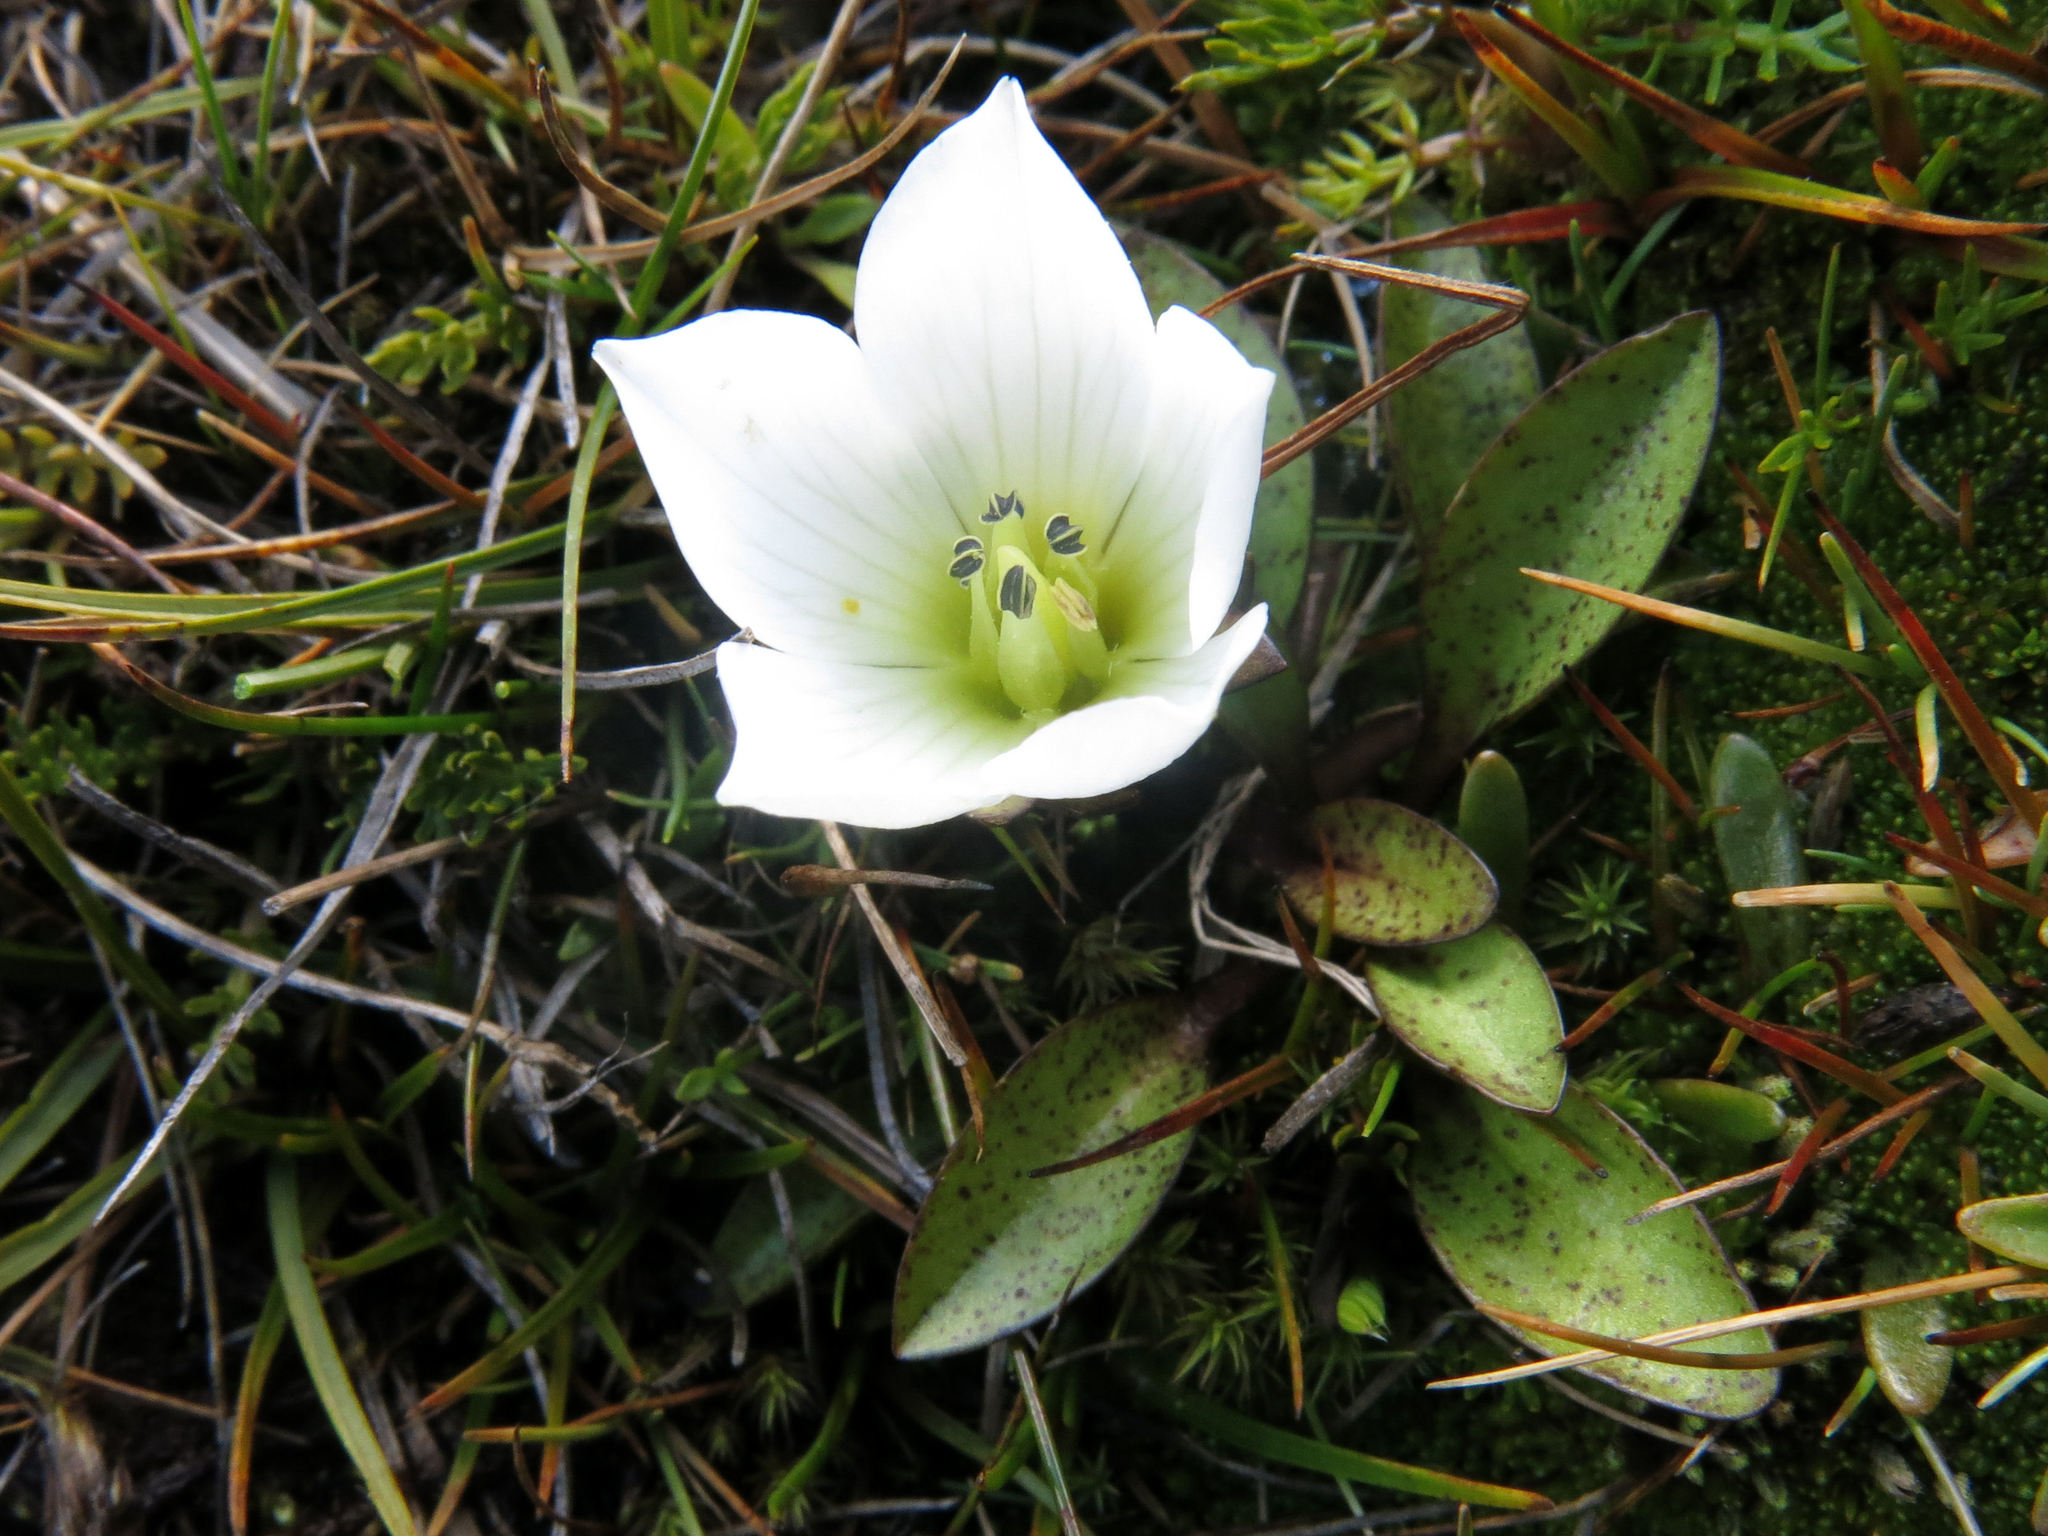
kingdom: Plantae
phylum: Tracheophyta
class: Magnoliopsida
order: Gentianales
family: Gentianaceae
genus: Gentianella
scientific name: Gentianella amabilis
